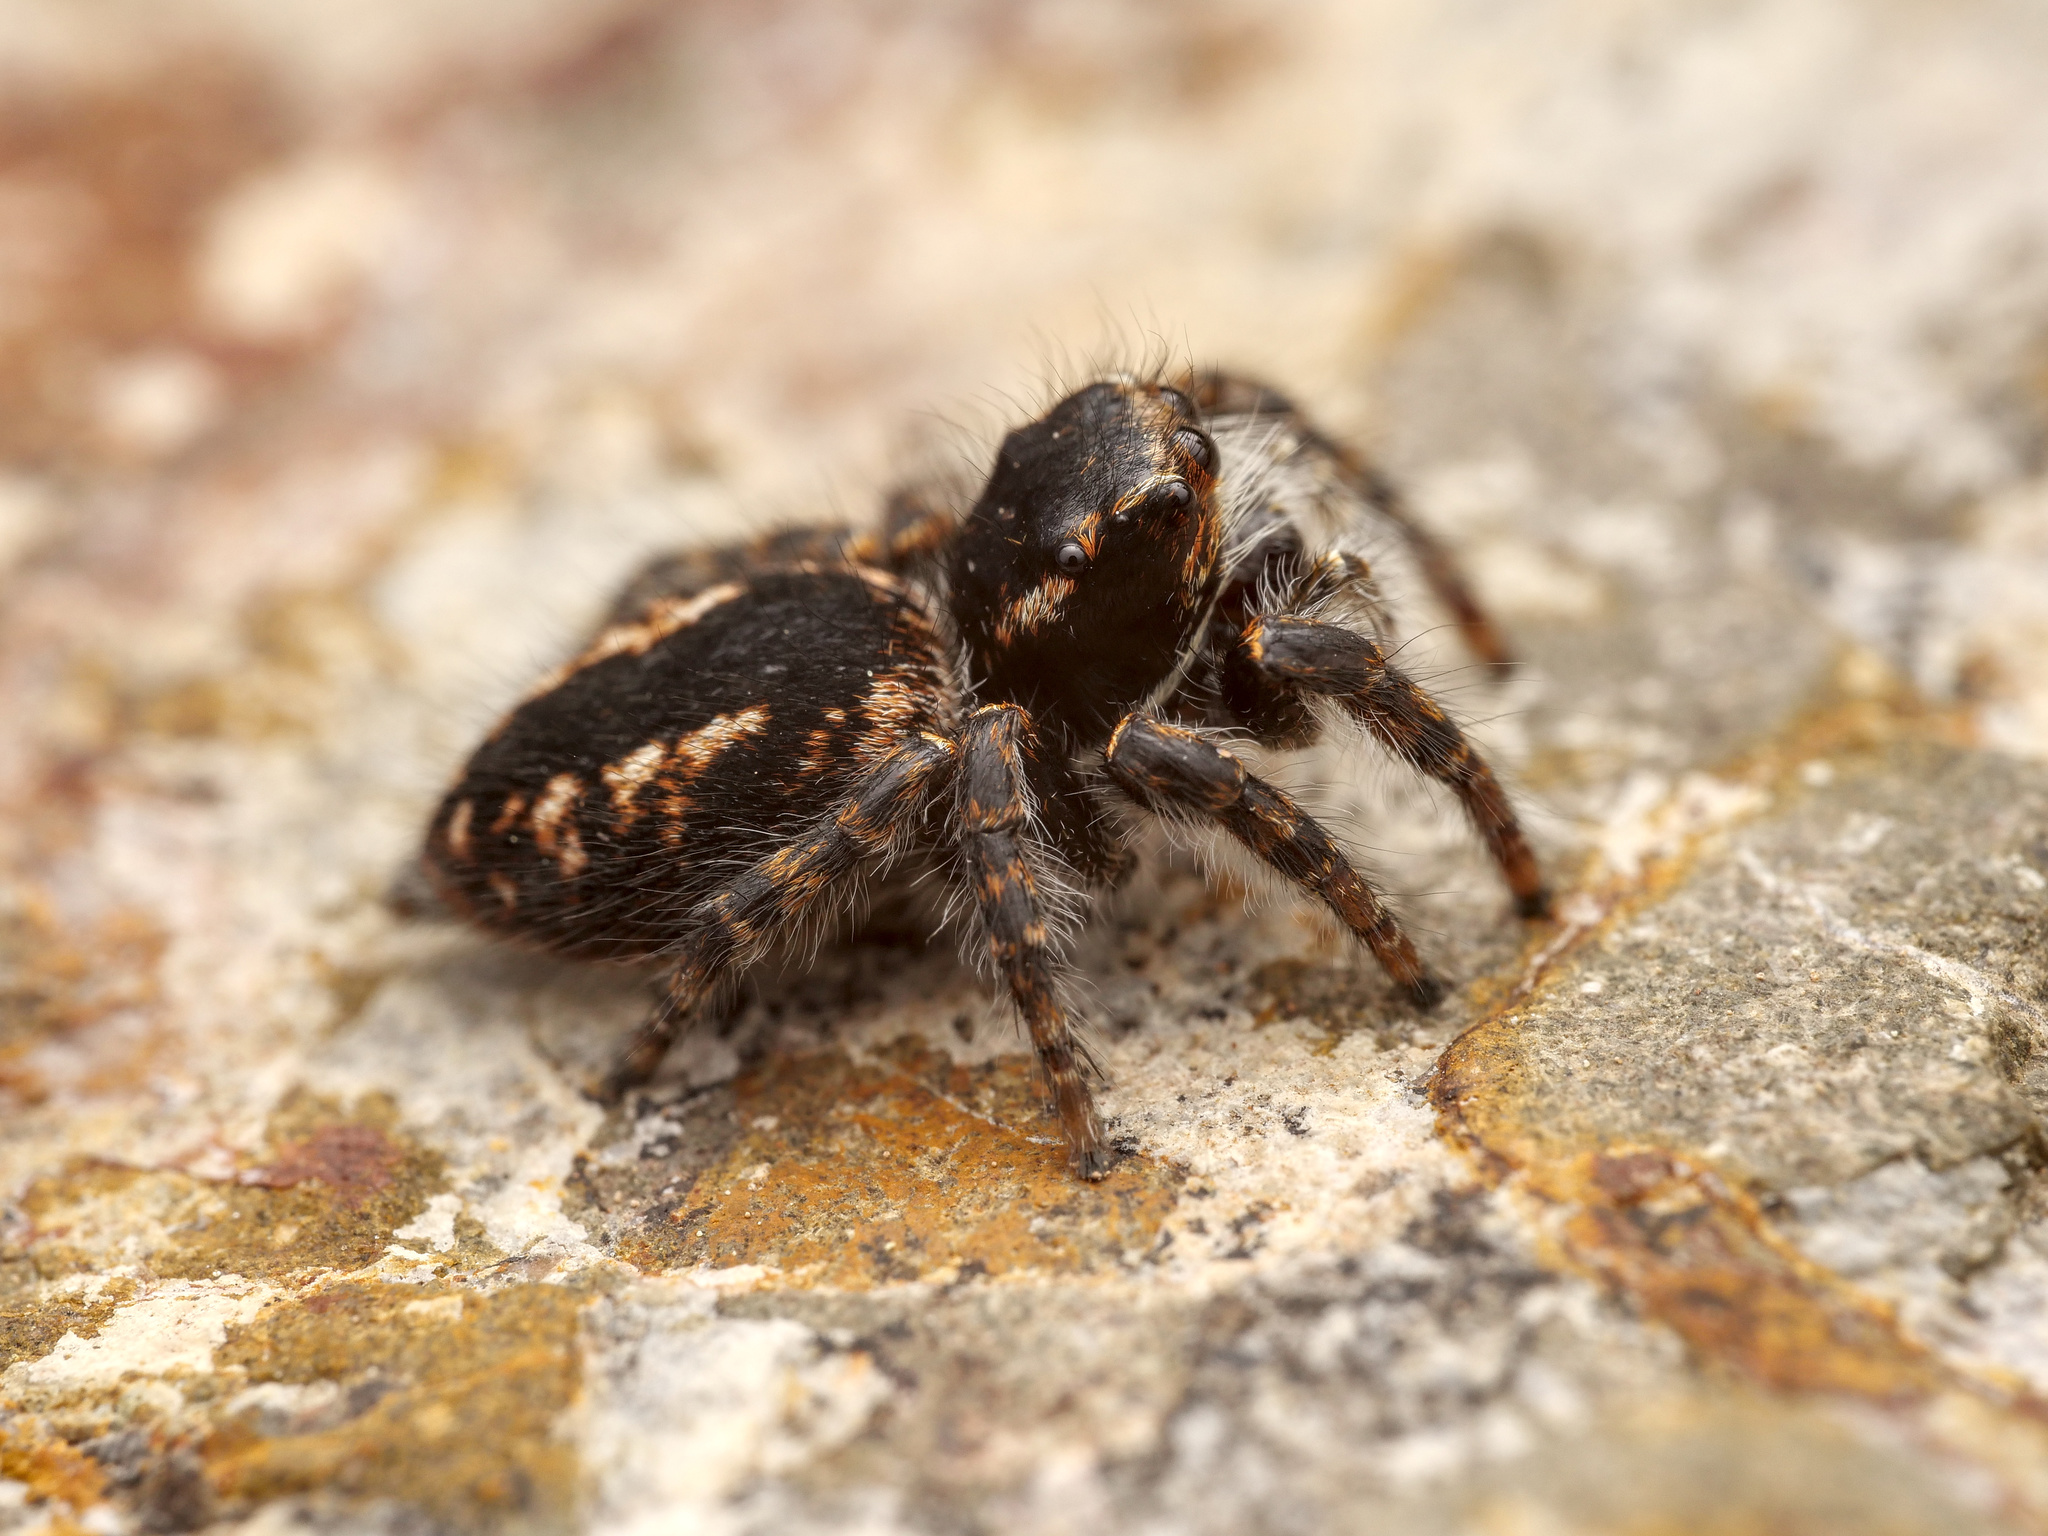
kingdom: Animalia
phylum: Arthropoda
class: Arachnida
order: Araneae
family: Salticidae
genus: Philaeus
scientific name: Philaeus chrysops
